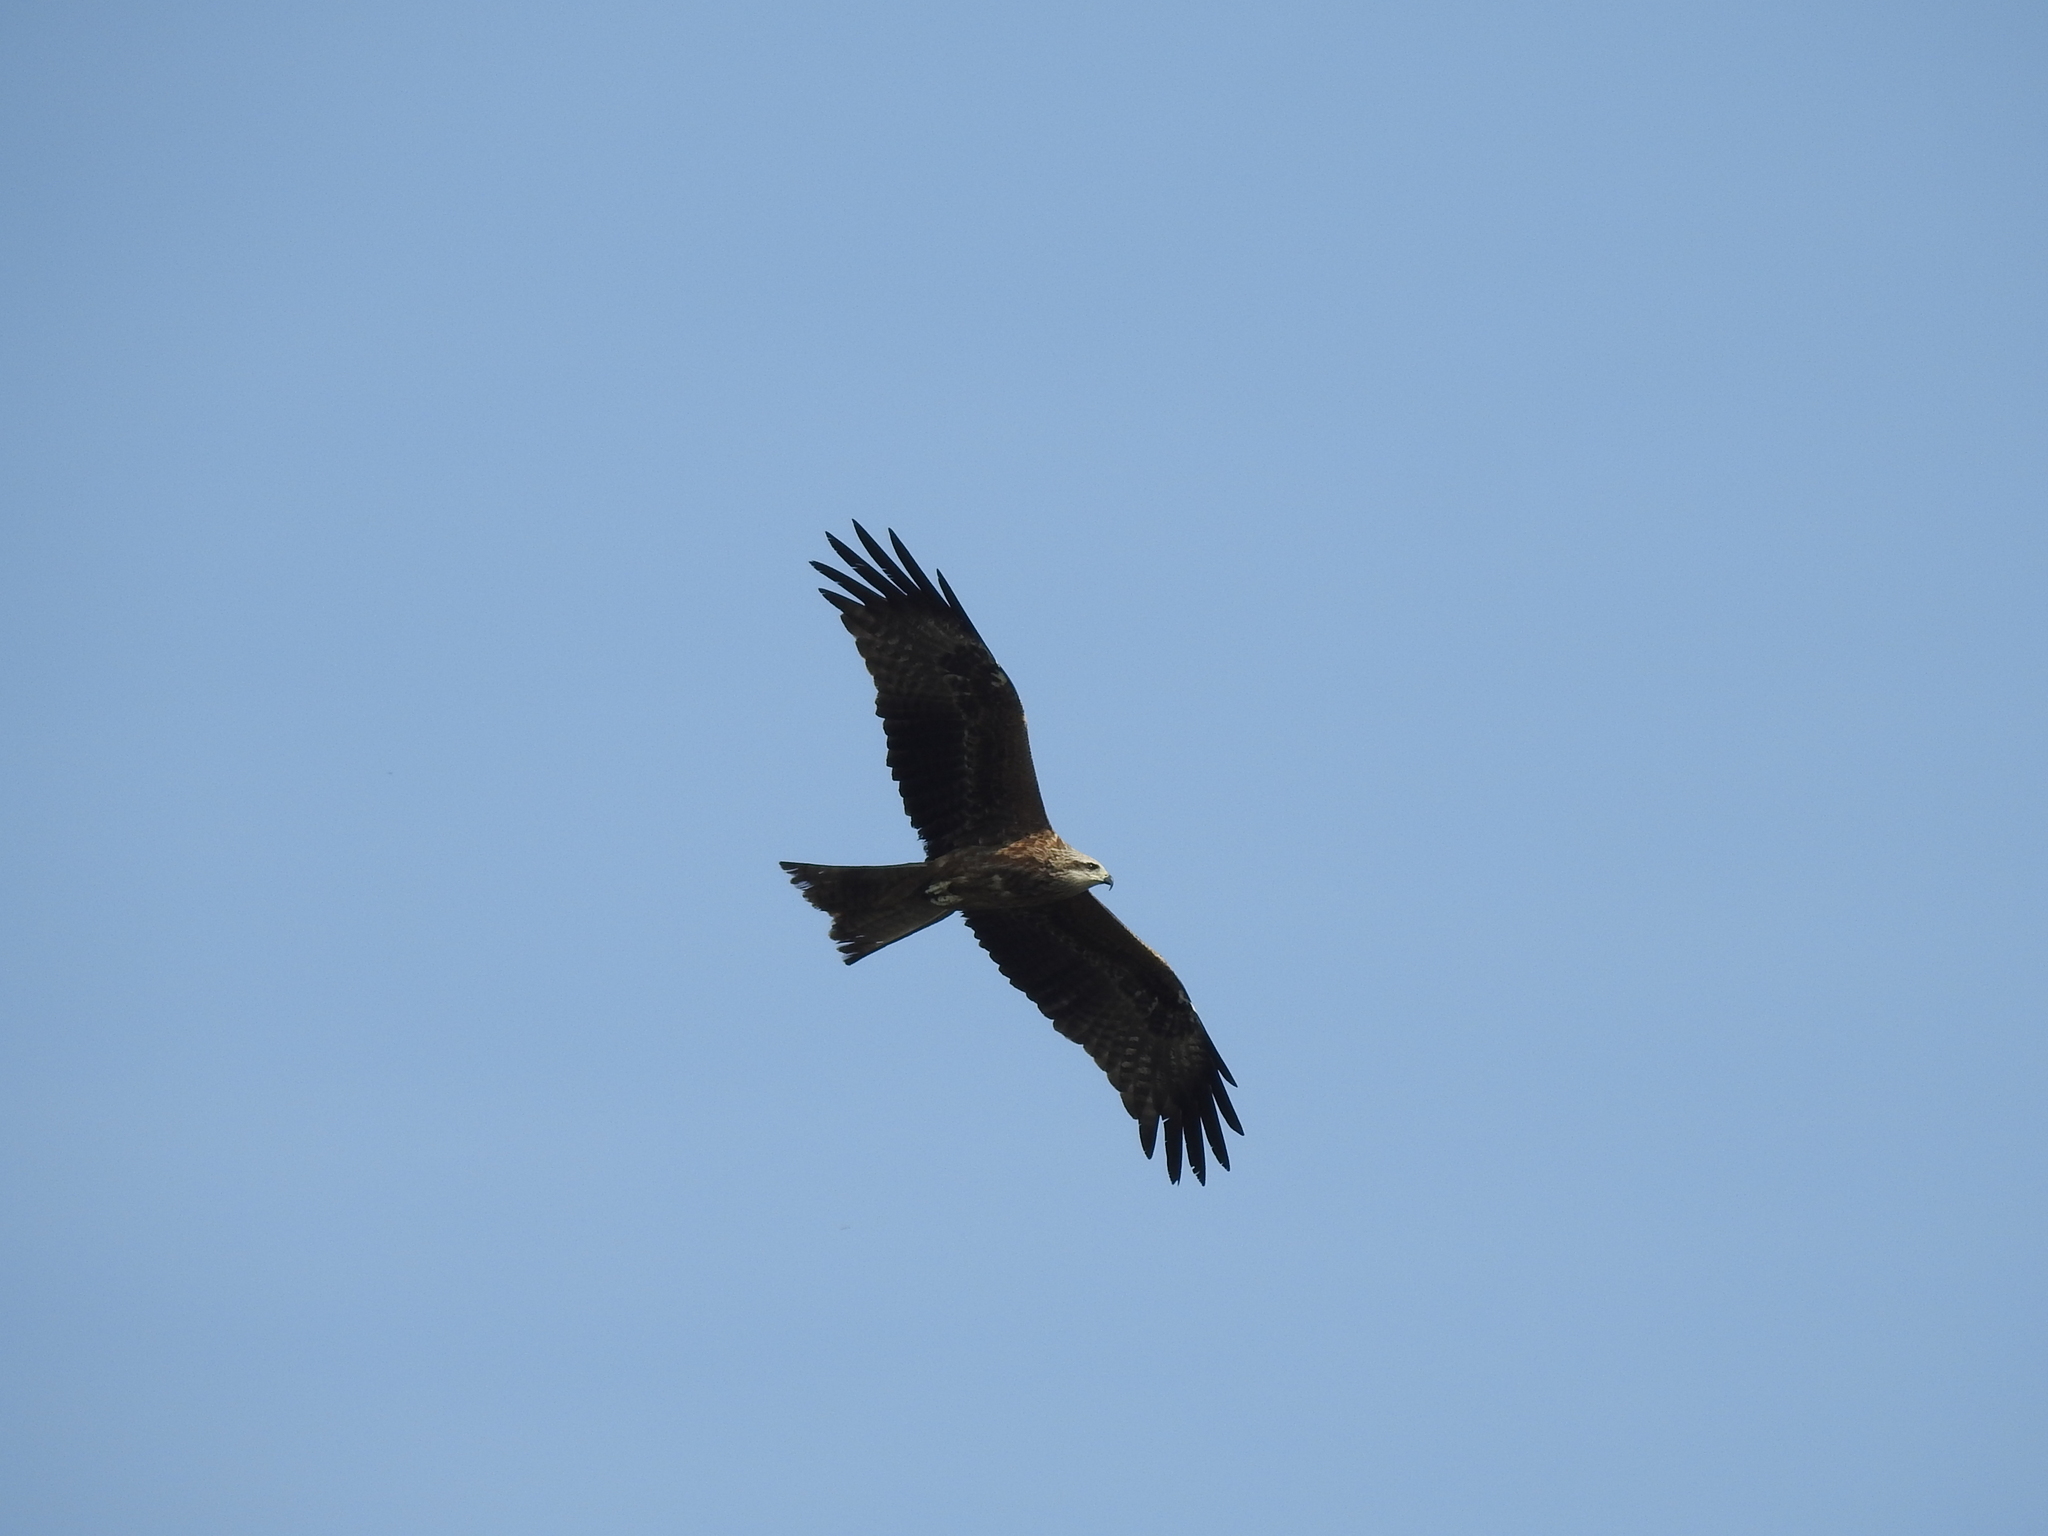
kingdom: Animalia
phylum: Chordata
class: Aves
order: Accipitriformes
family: Accipitridae
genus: Milvus
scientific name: Milvus migrans
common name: Black kite
